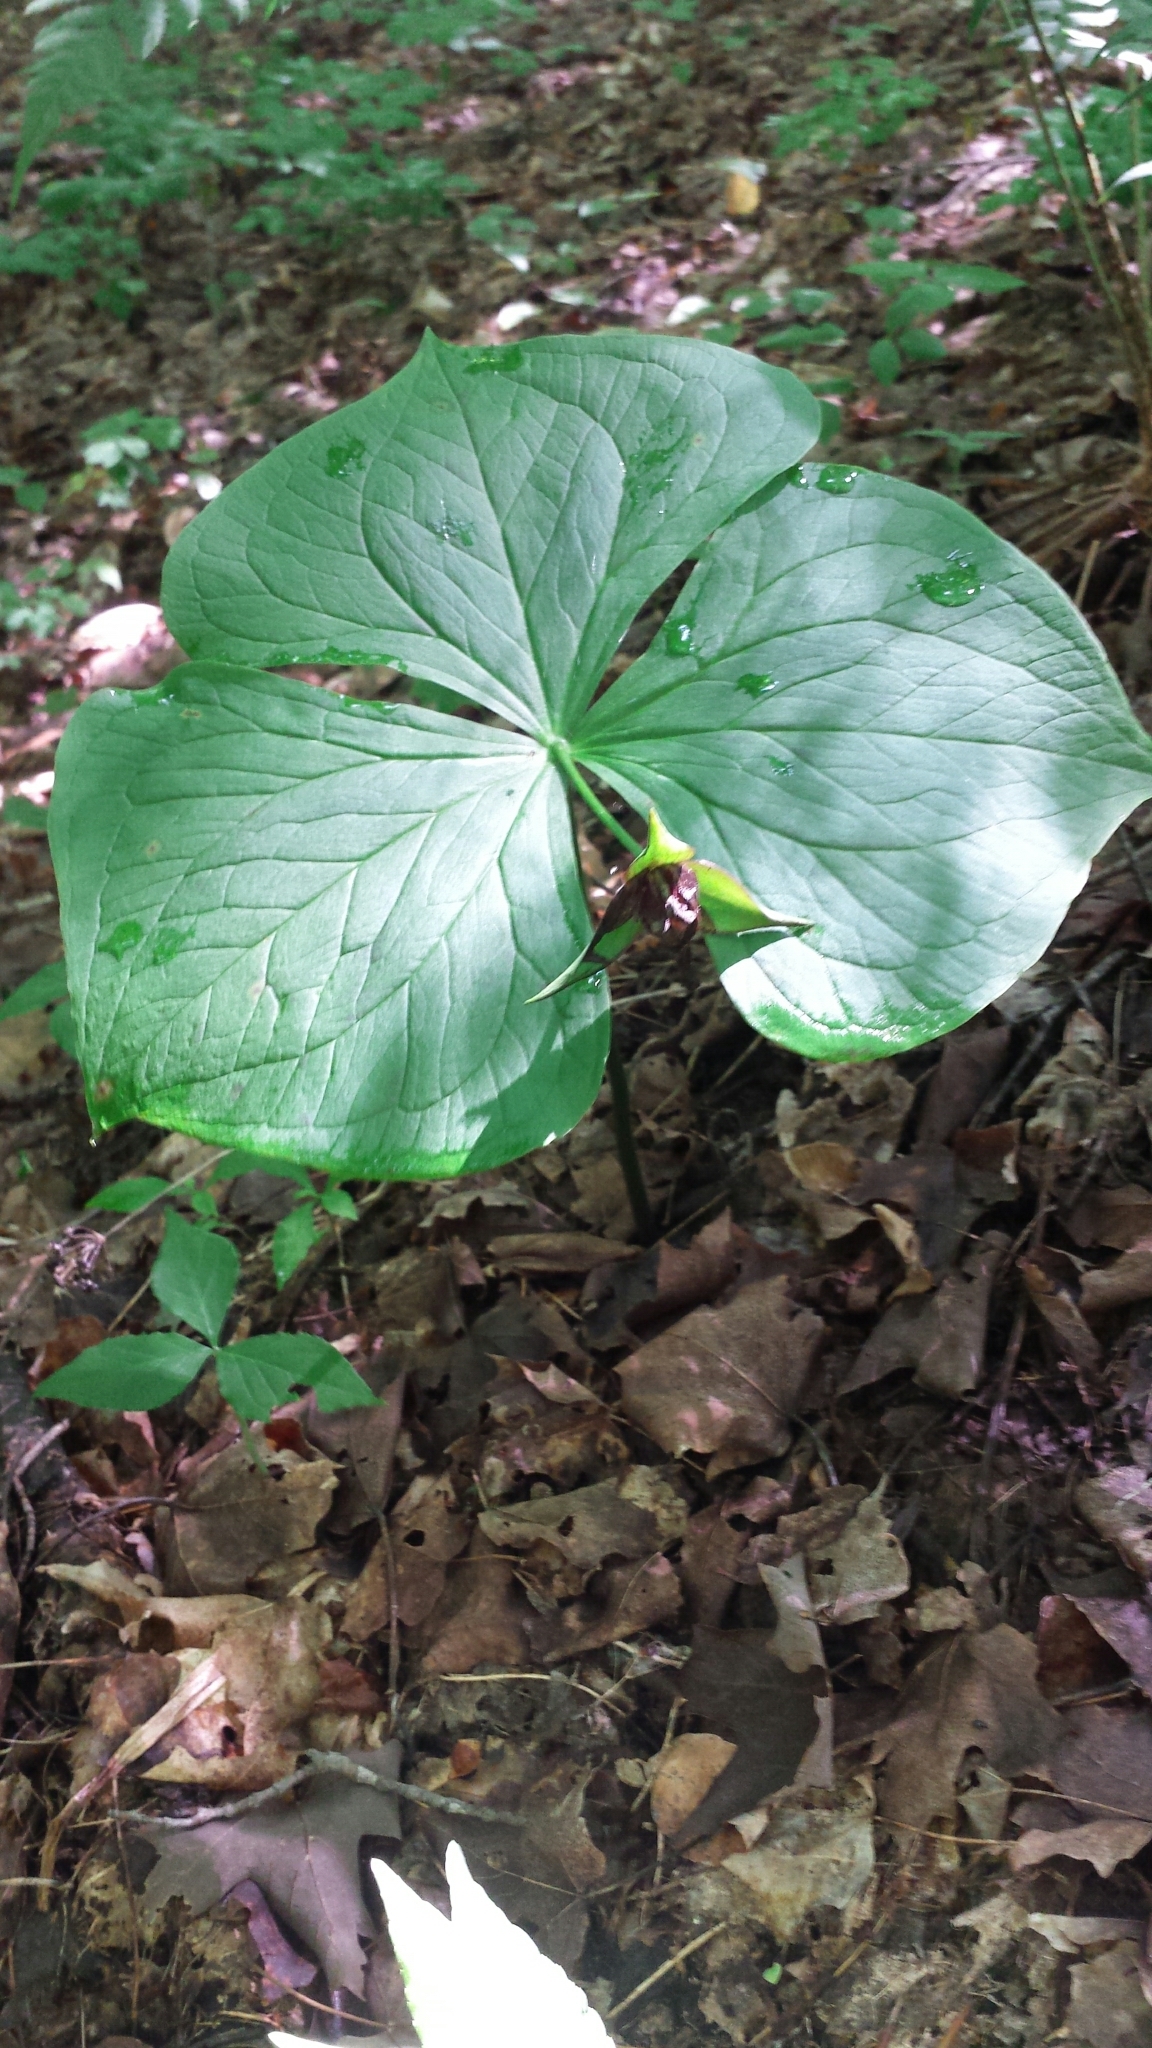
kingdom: Plantae
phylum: Tracheophyta
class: Liliopsida
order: Liliales
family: Melanthiaceae
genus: Trillium
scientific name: Trillium erectum
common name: Purple trillium
